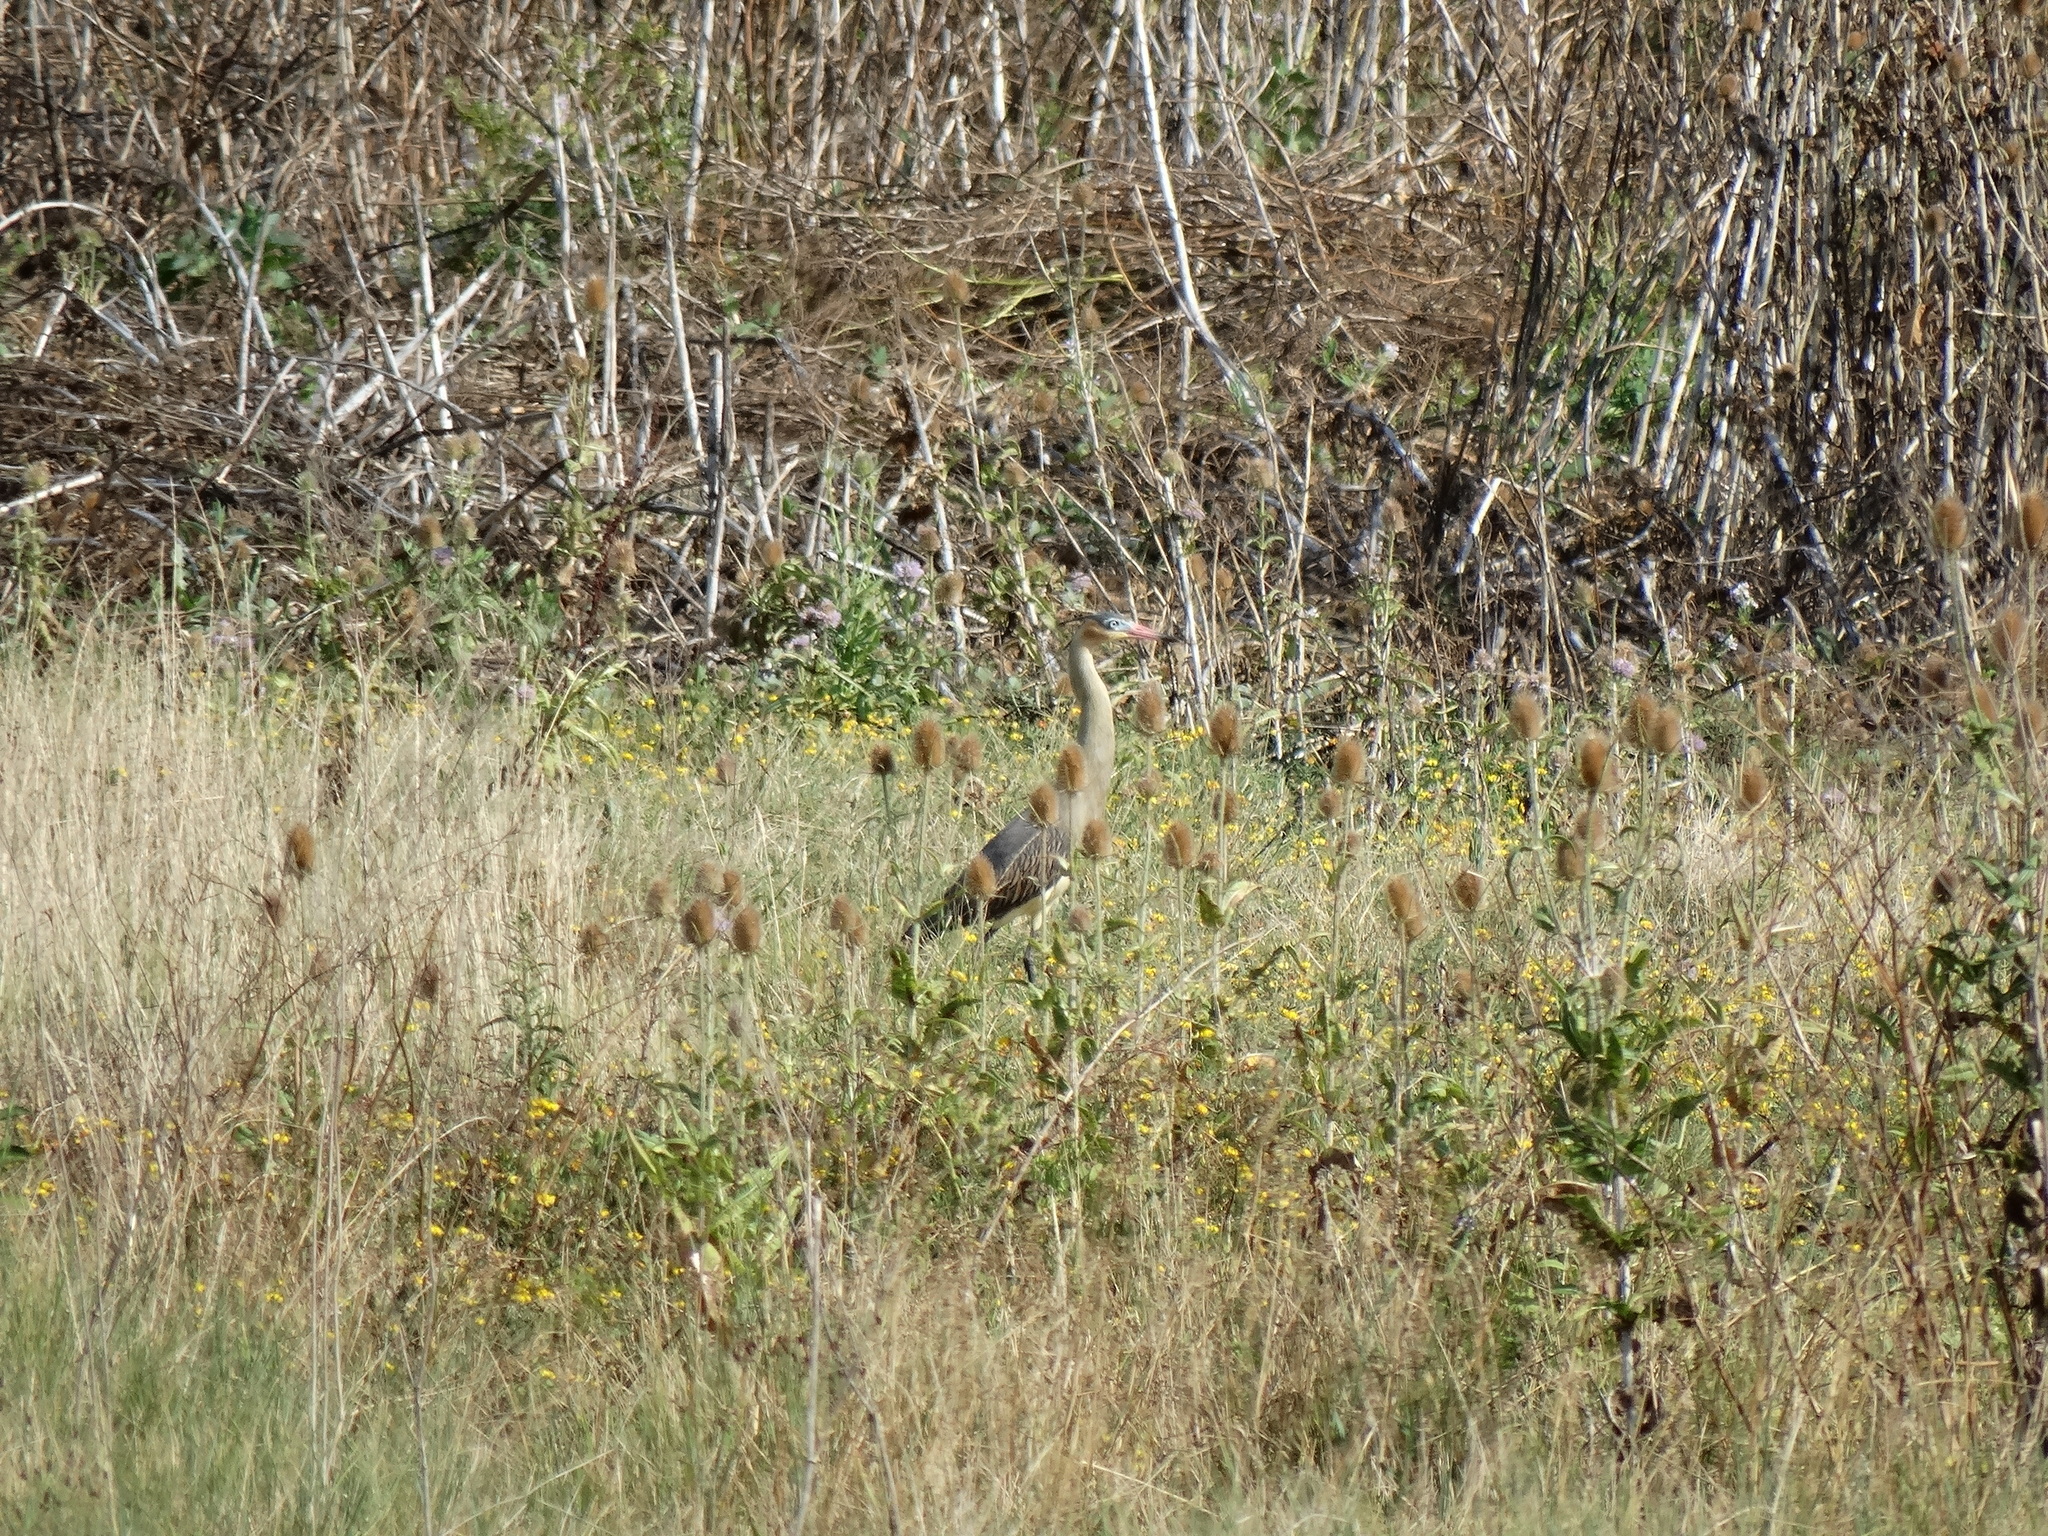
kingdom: Animalia
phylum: Chordata
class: Aves
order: Pelecaniformes
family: Ardeidae
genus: Syrigma
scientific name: Syrigma sibilatrix
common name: Whistling heron
